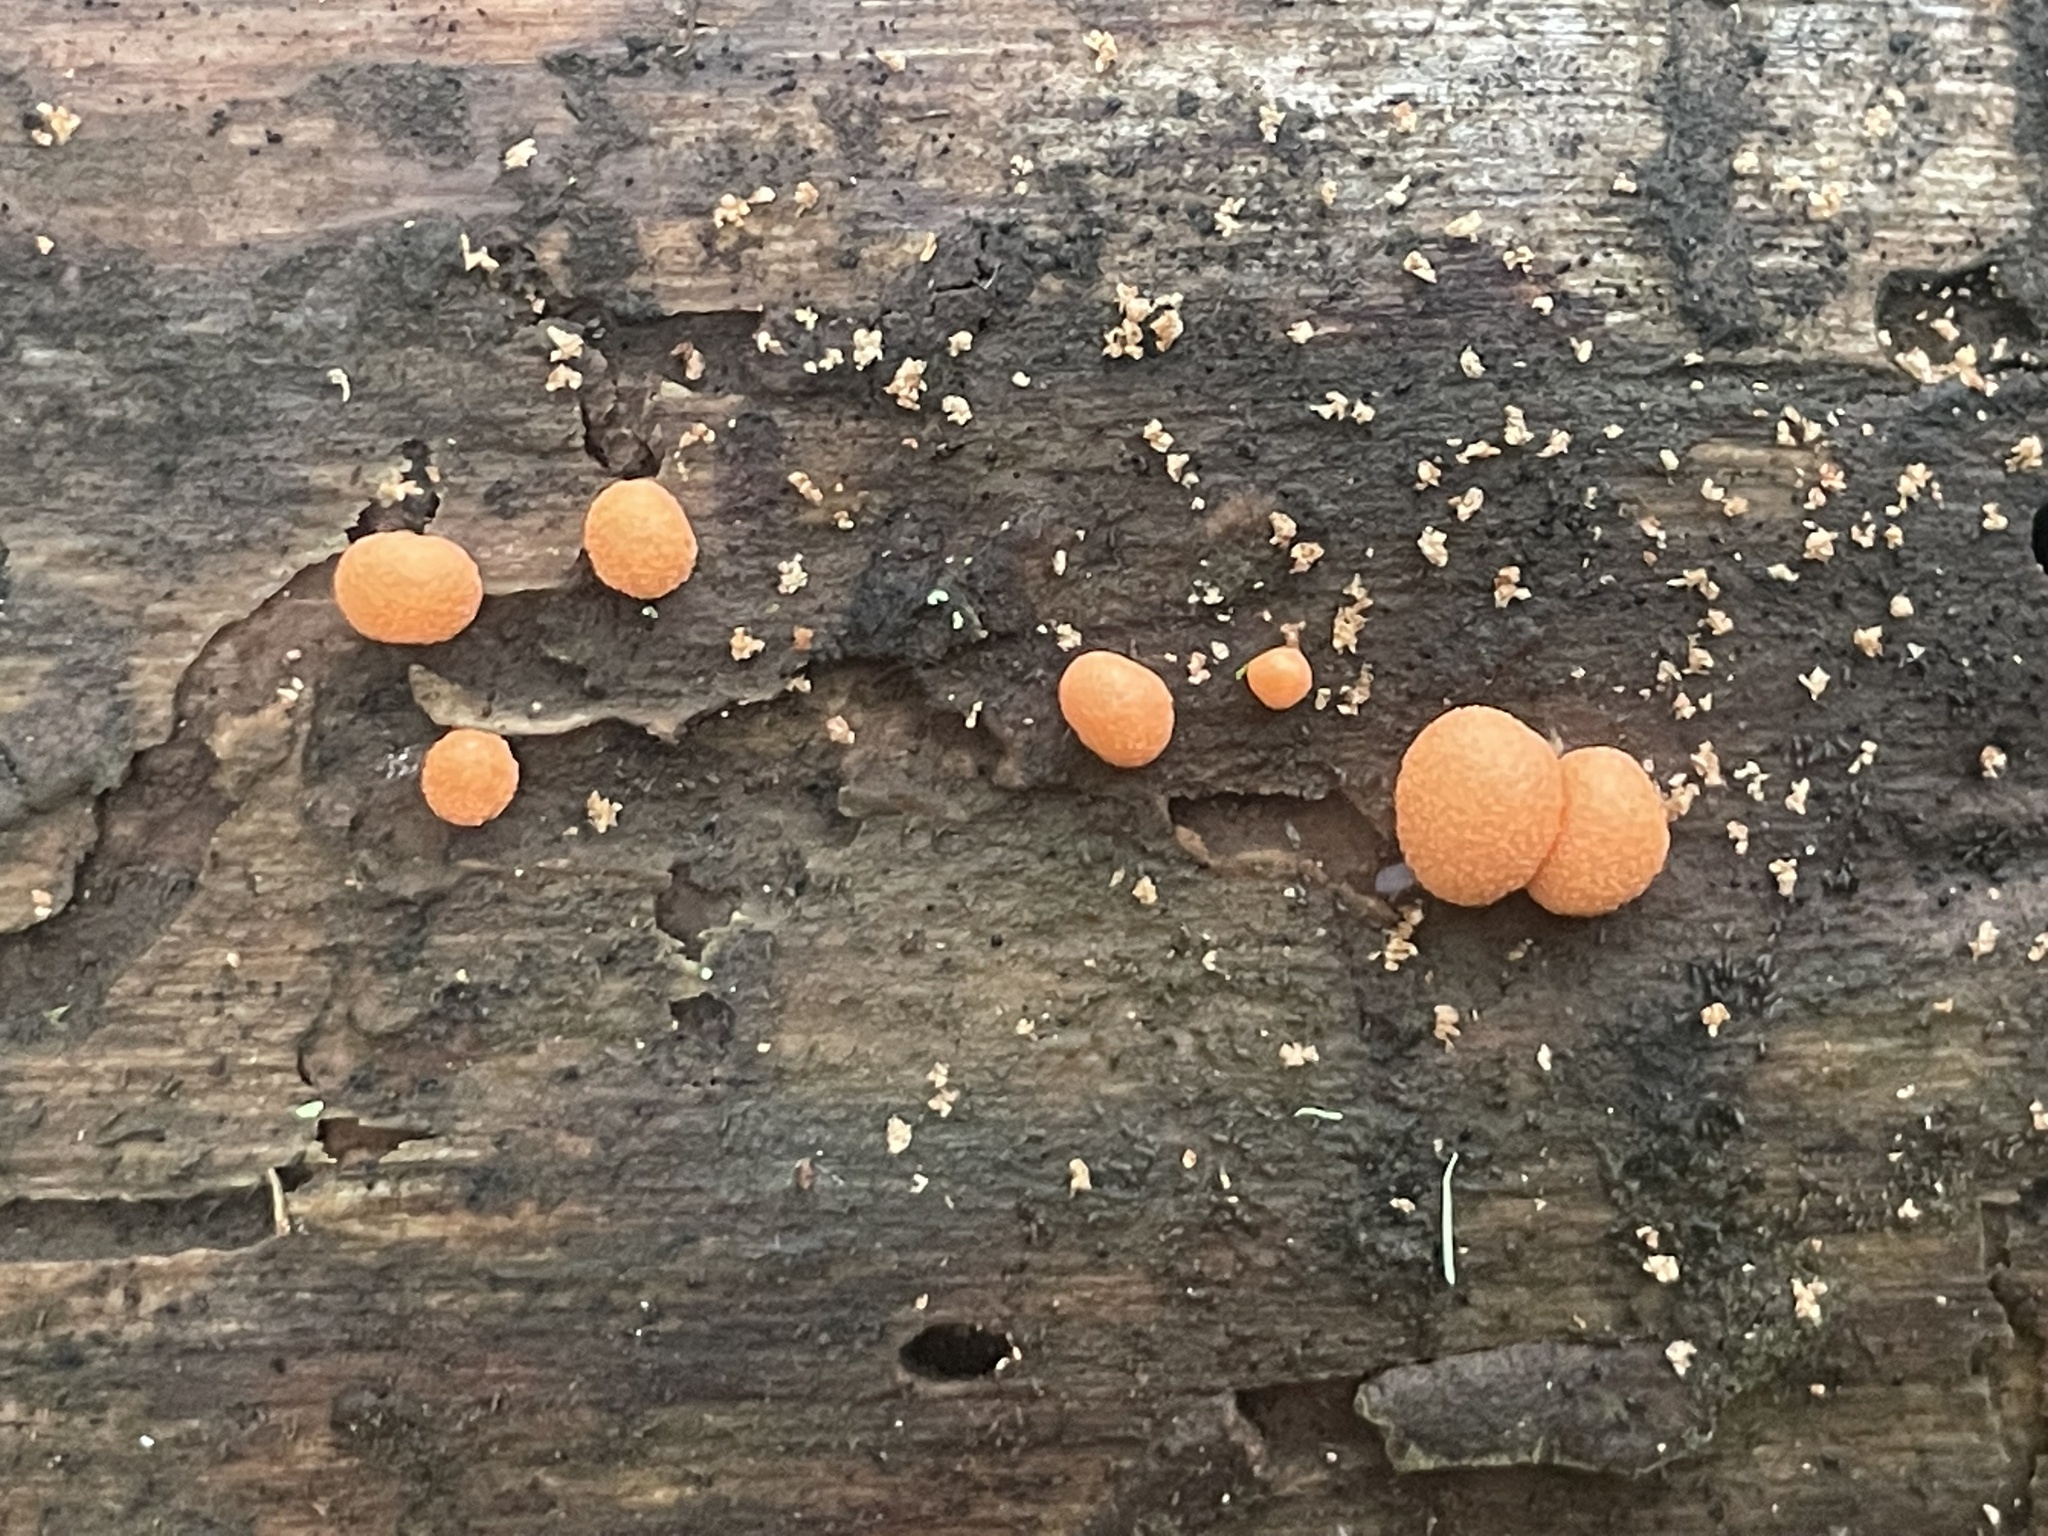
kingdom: Protozoa
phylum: Mycetozoa
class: Myxomycetes
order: Cribrariales
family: Tubiferaceae
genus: Lycogala
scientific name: Lycogala epidendrum
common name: Wolf's milk
